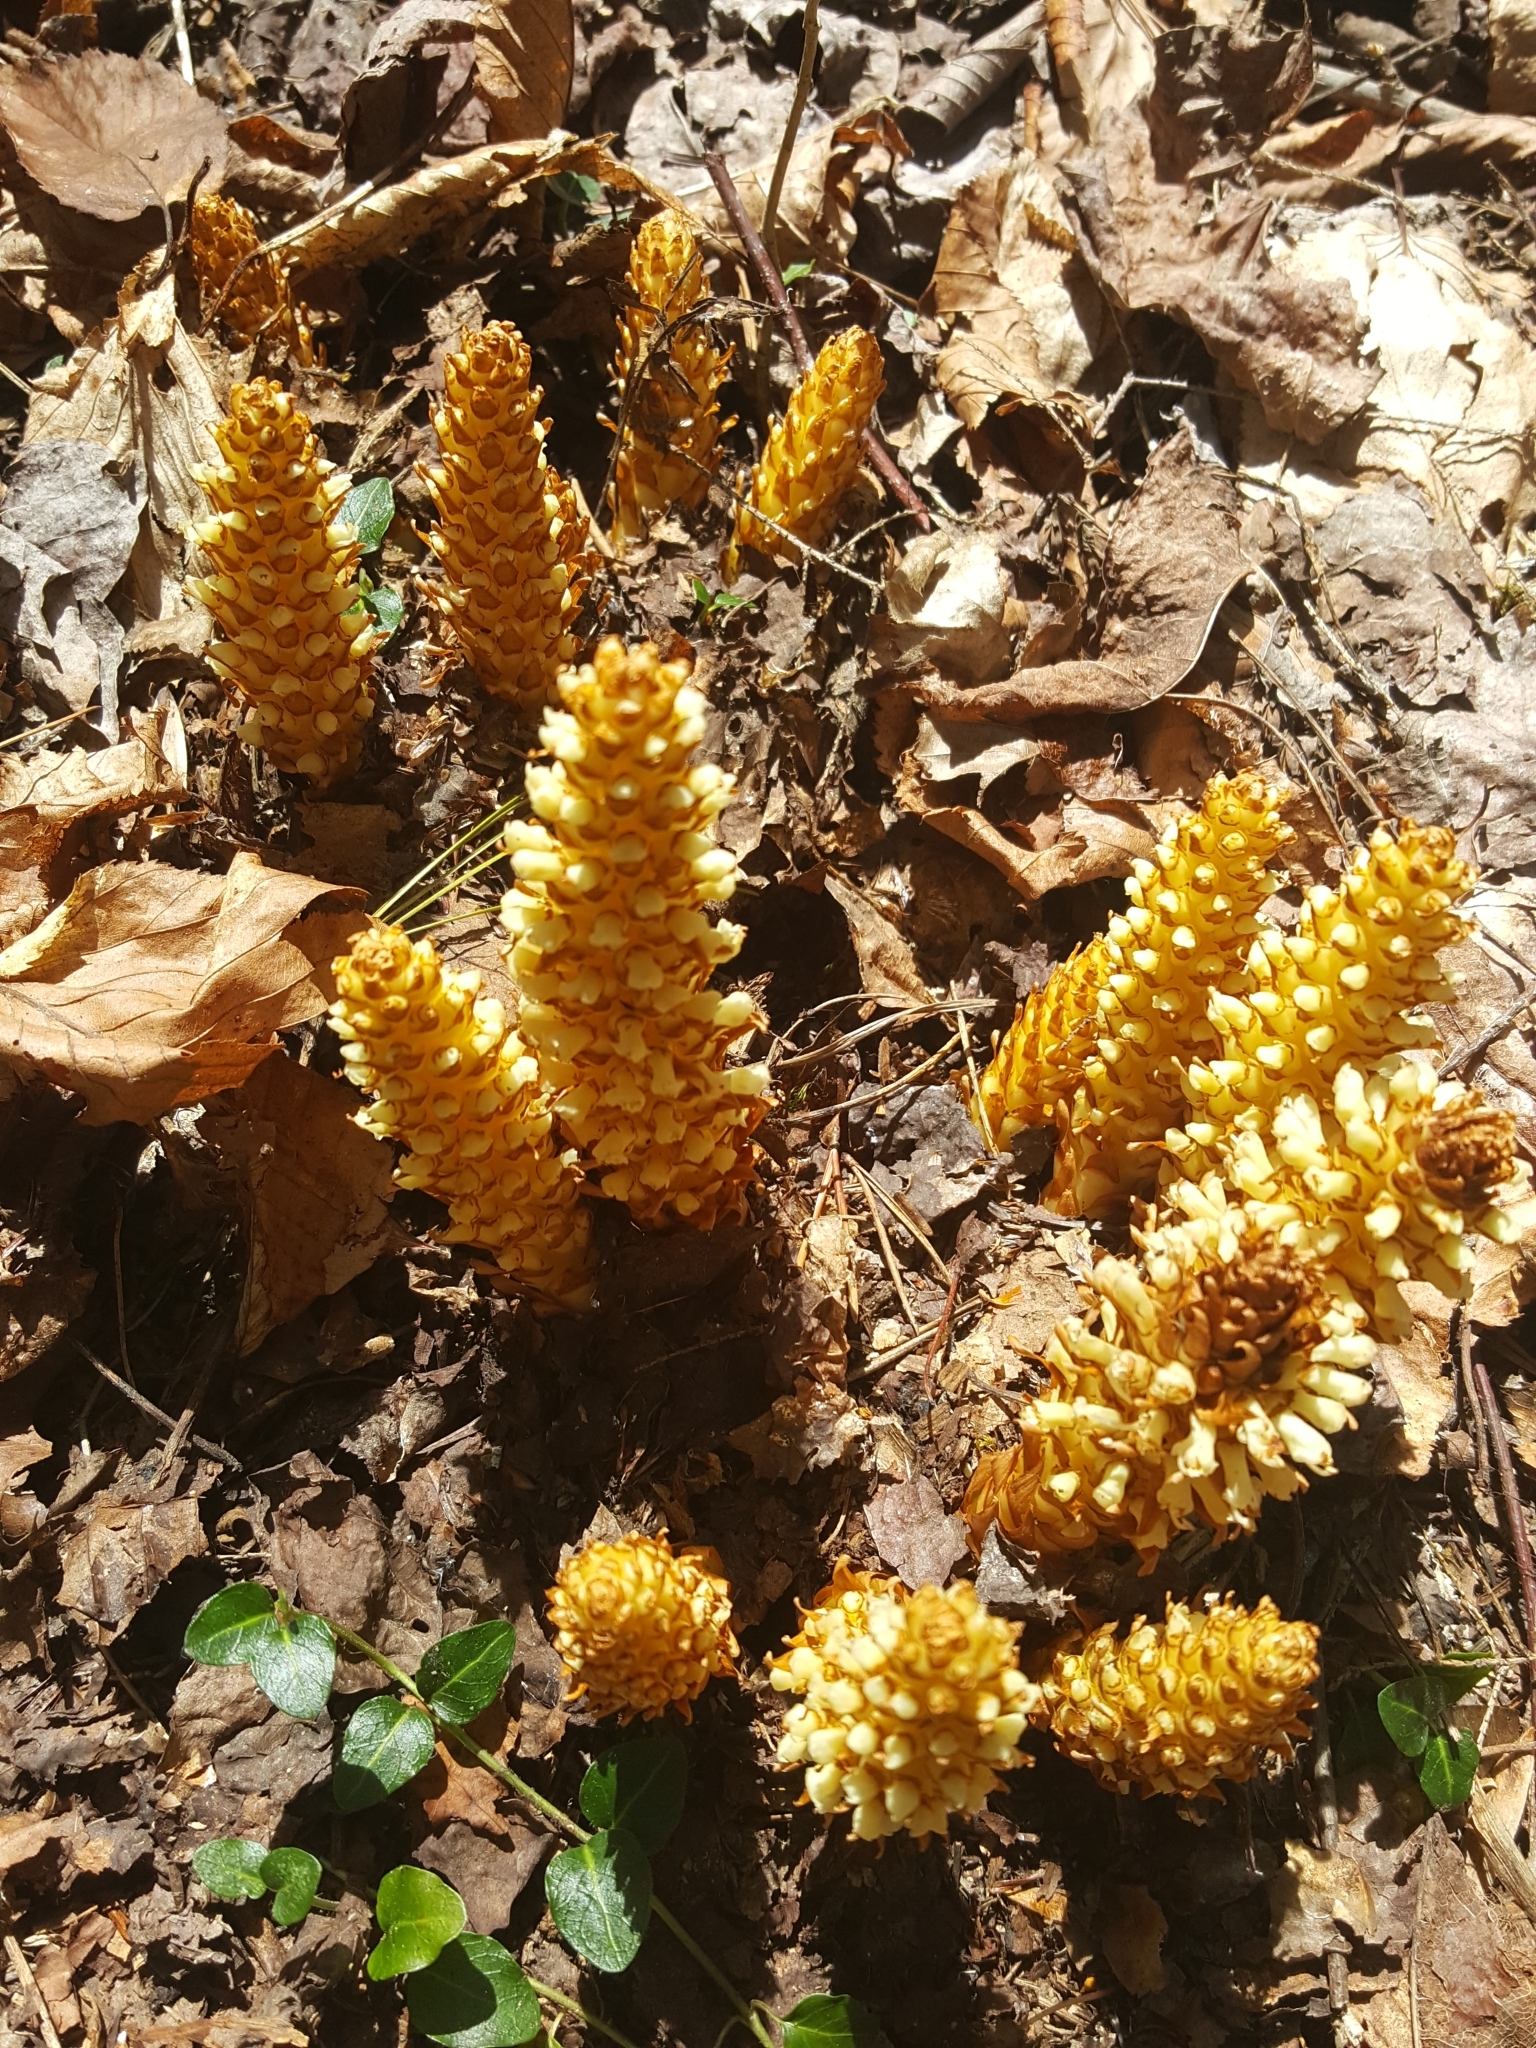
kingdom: Plantae
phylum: Tracheophyta
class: Magnoliopsida
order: Lamiales
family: Orobanchaceae
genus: Conopholis
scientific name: Conopholis americana
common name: American cancer-root
